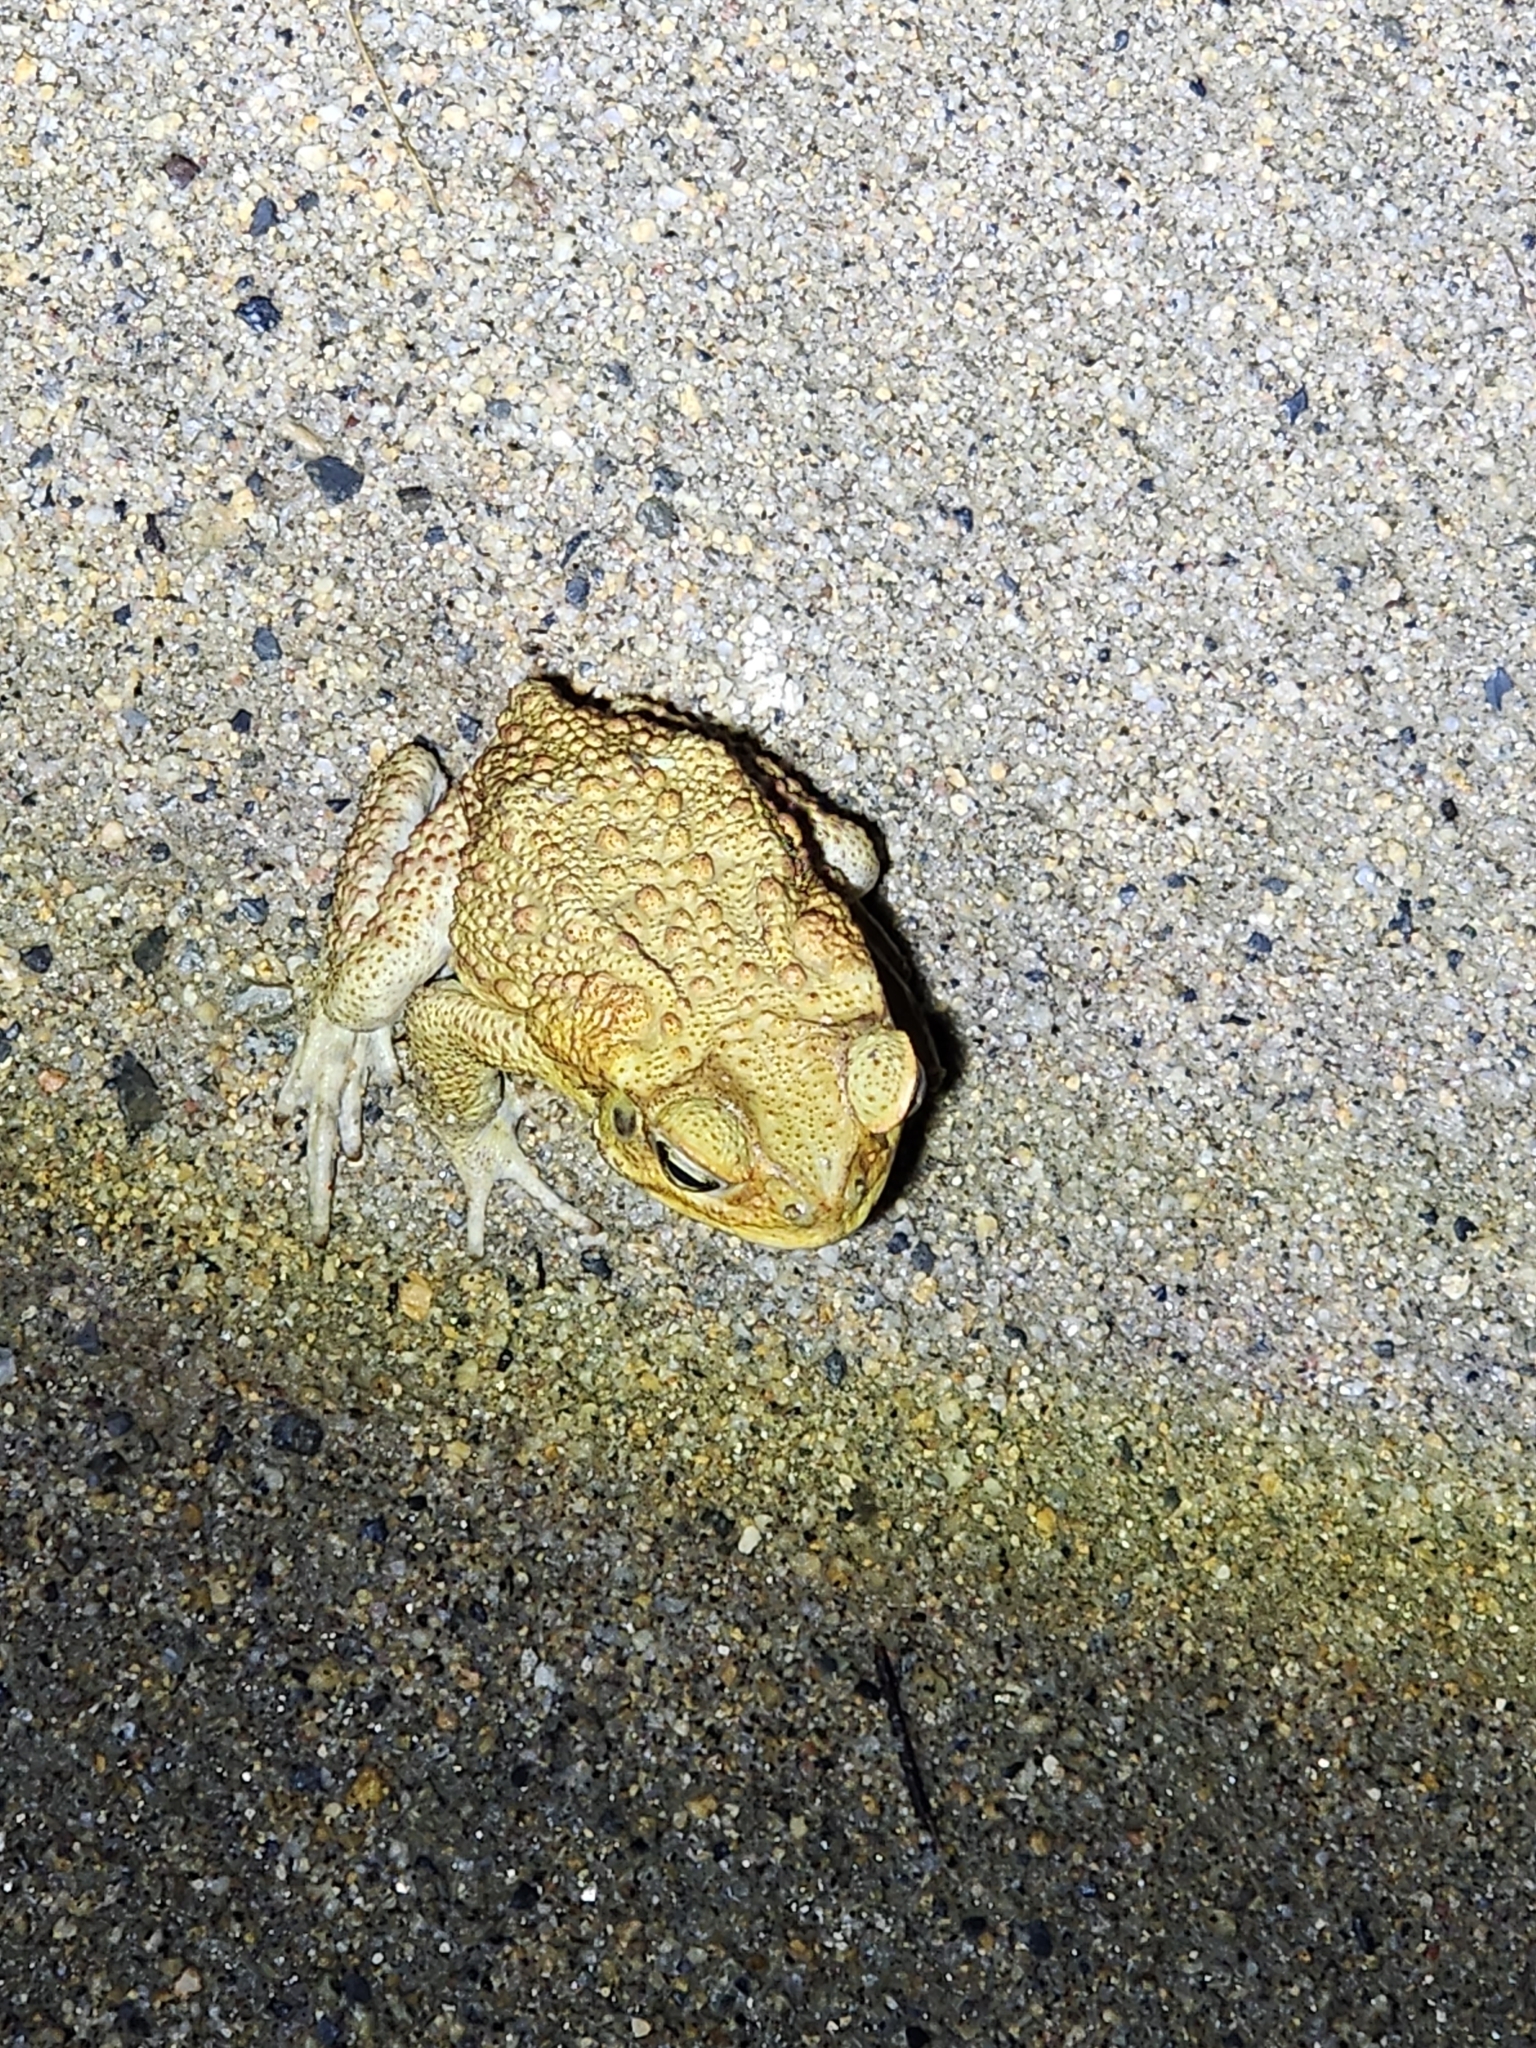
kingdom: Animalia
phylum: Chordata
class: Amphibia
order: Anura
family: Bufonidae
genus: Rhinella
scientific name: Rhinella marina
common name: Cane toad
